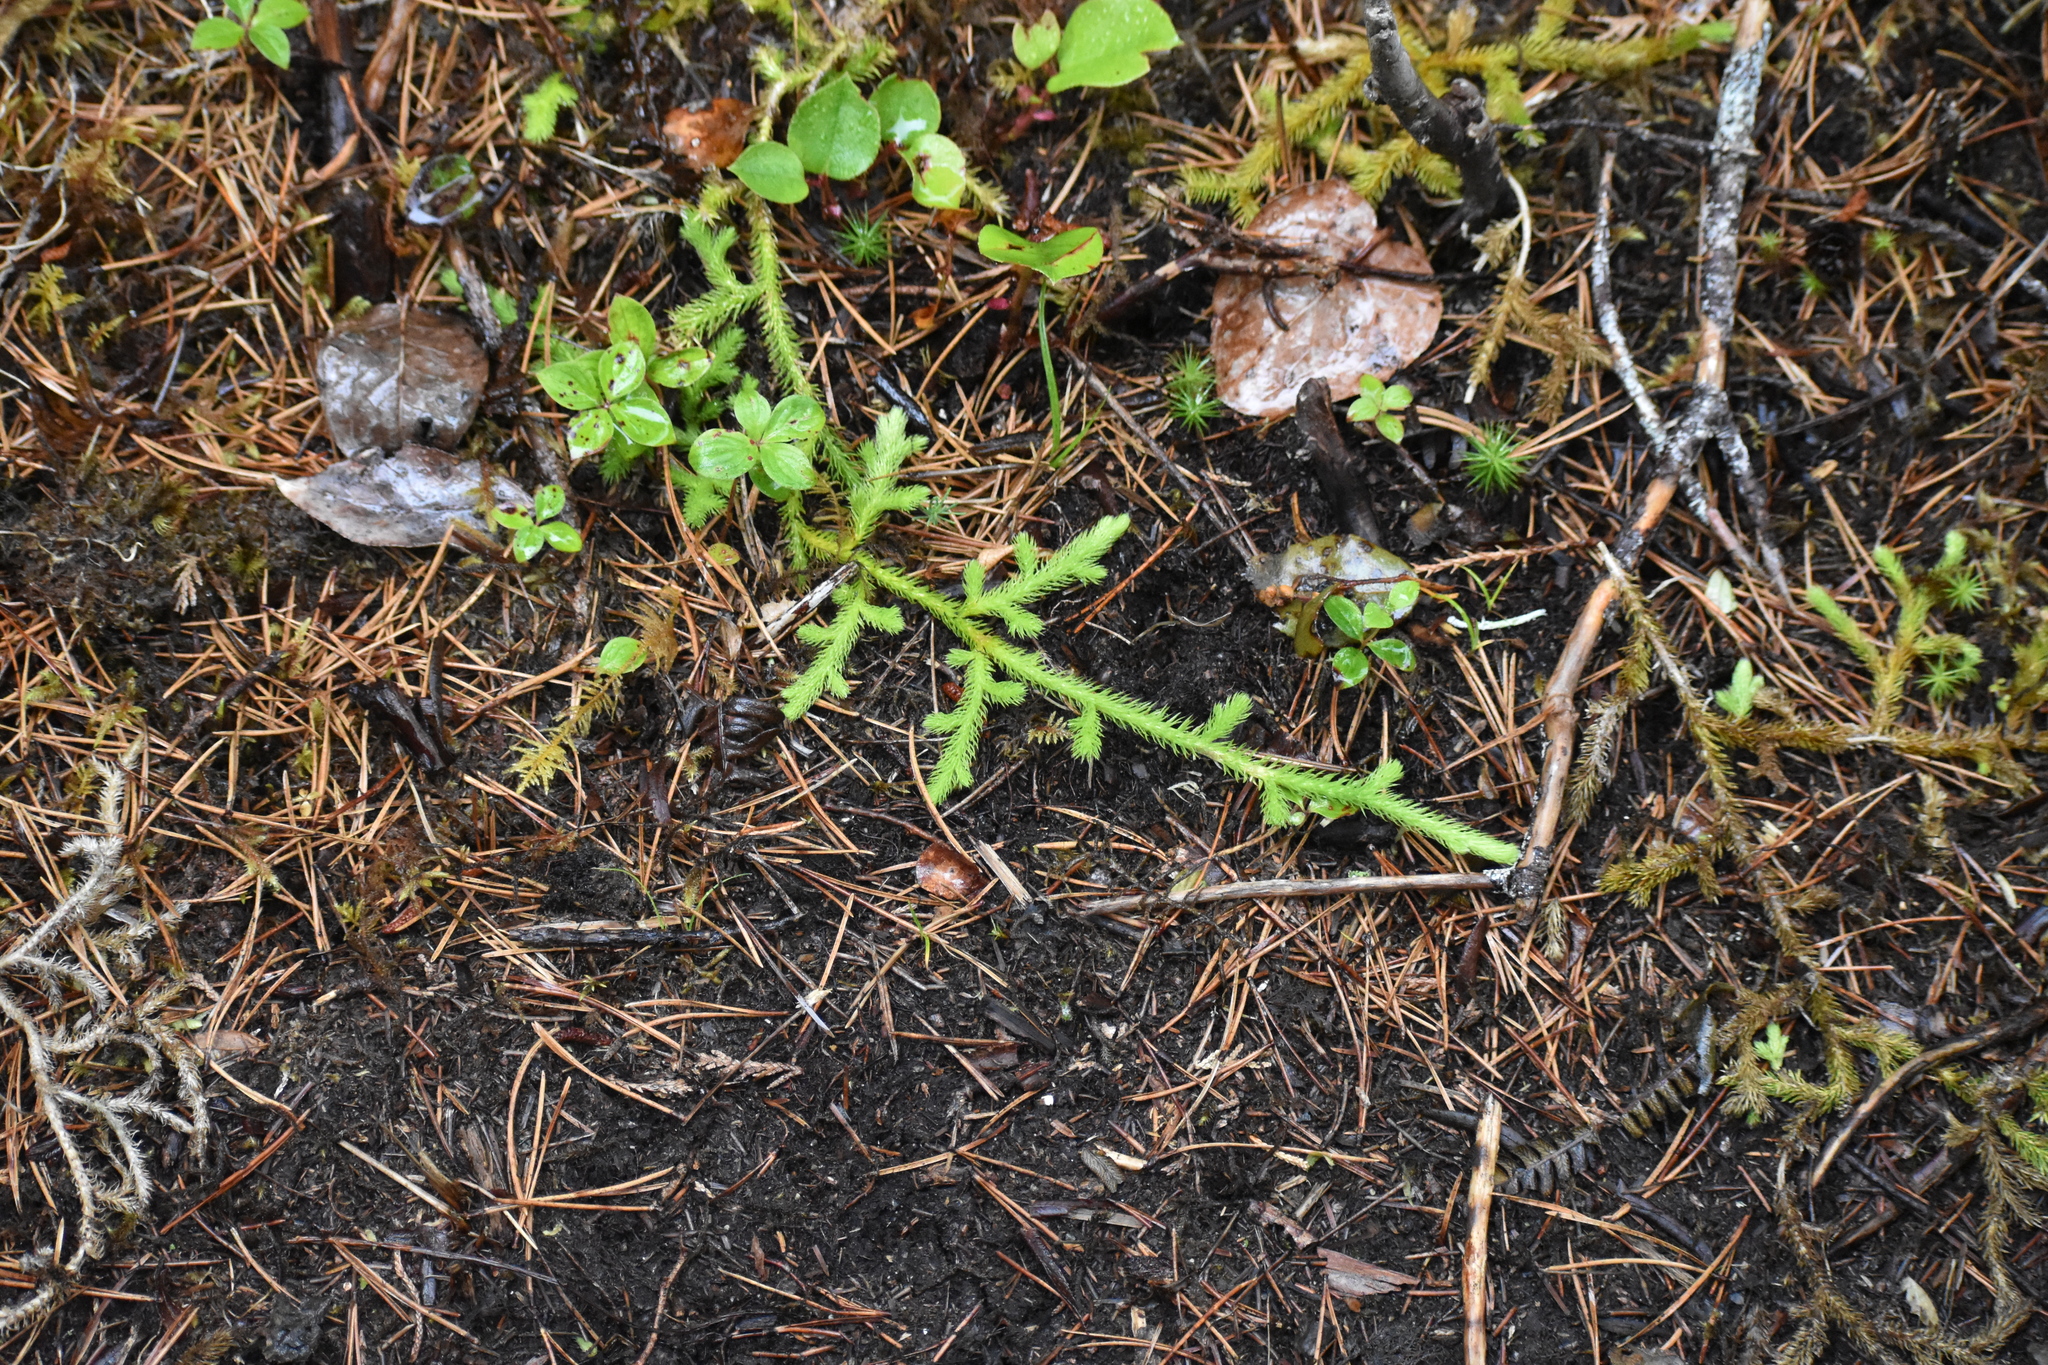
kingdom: Plantae
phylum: Tracheophyta
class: Lycopodiopsida
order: Lycopodiales
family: Lycopodiaceae
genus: Lycopodium
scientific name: Lycopodium clavatum
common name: Stag's-horn clubmoss
